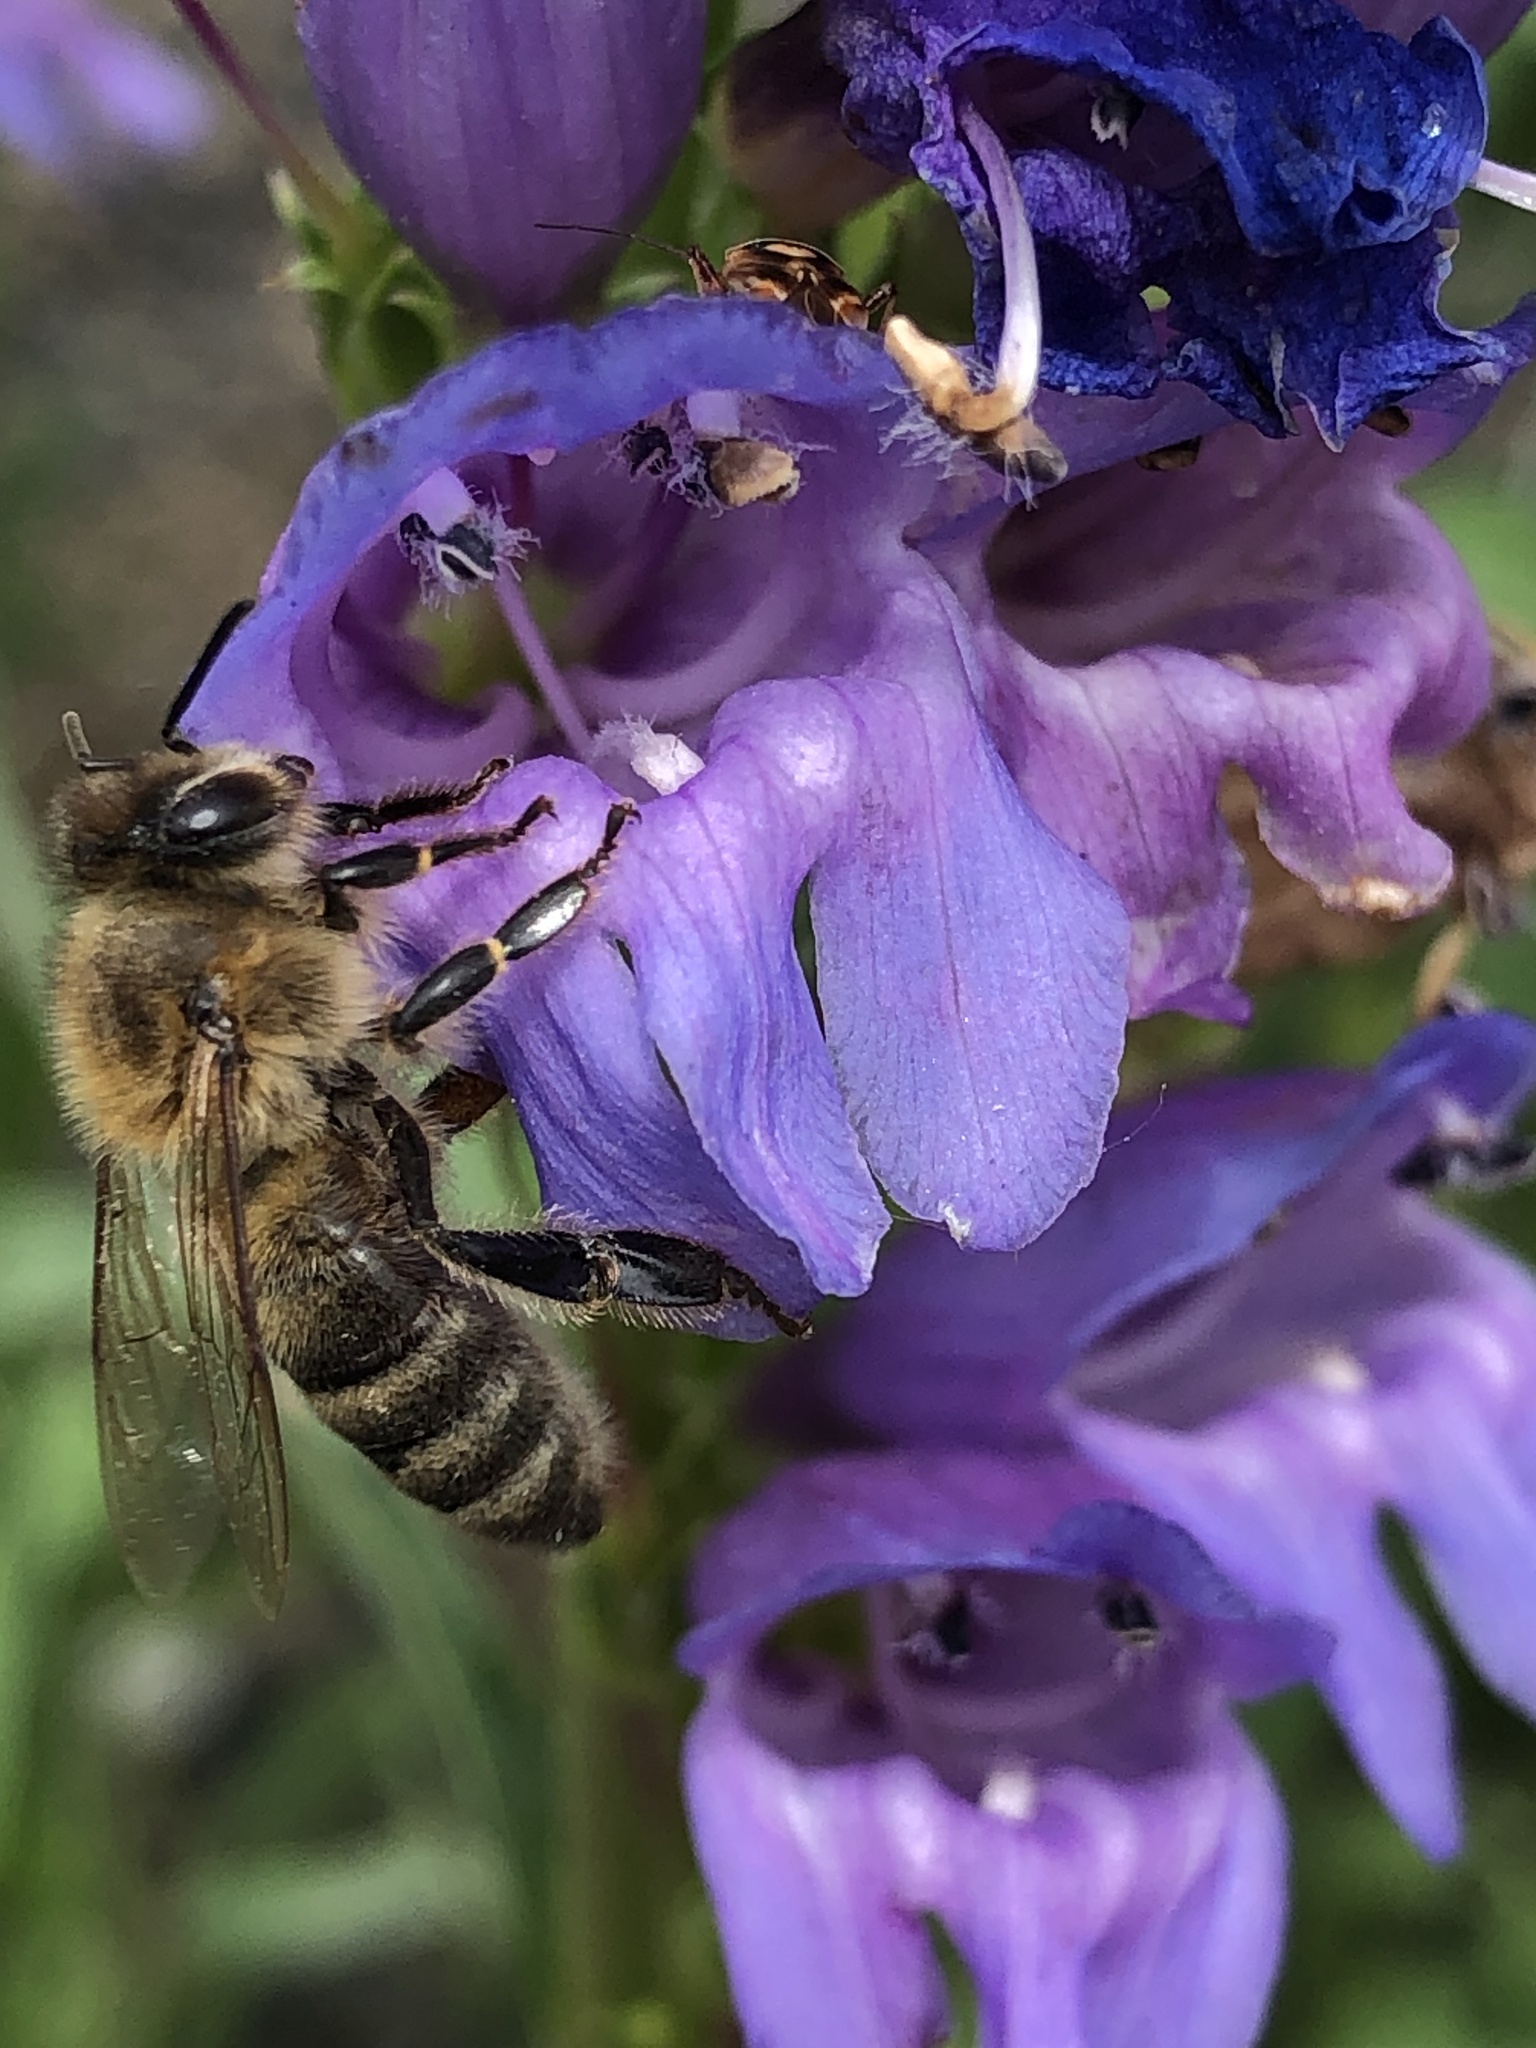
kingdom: Animalia
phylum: Arthropoda
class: Insecta
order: Hymenoptera
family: Apidae
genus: Apis
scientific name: Apis mellifera
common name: Honey bee
